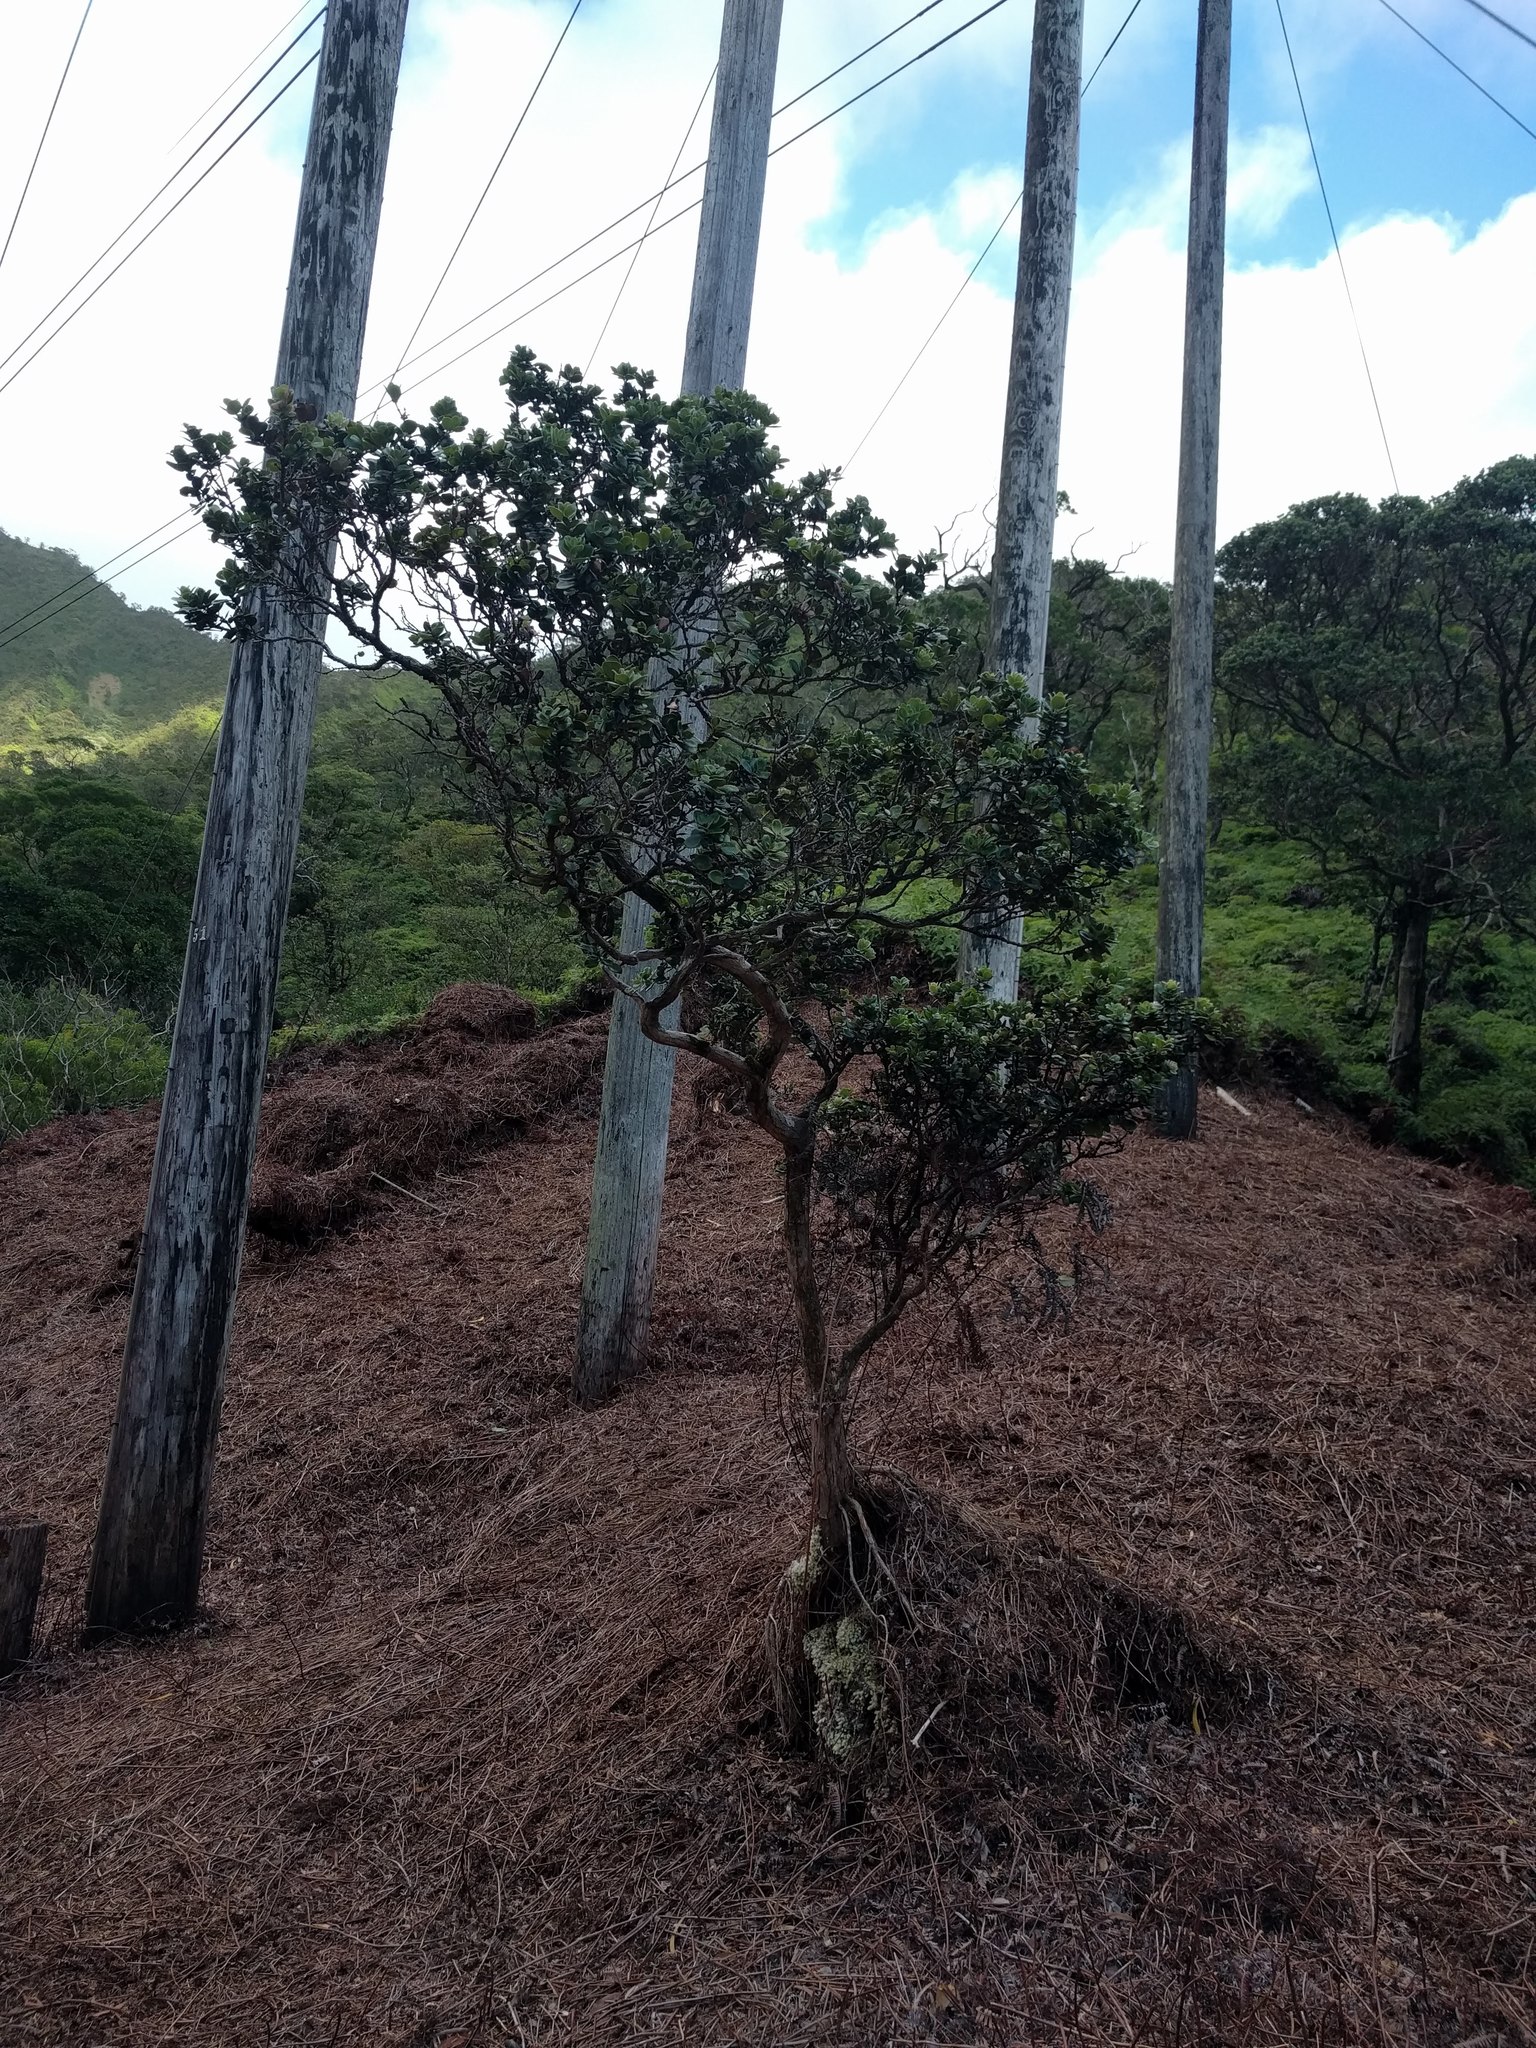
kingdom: Plantae
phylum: Tracheophyta
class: Magnoliopsida
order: Myrtales
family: Myrtaceae
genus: Metrosideros
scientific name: Metrosideros polymorpha
